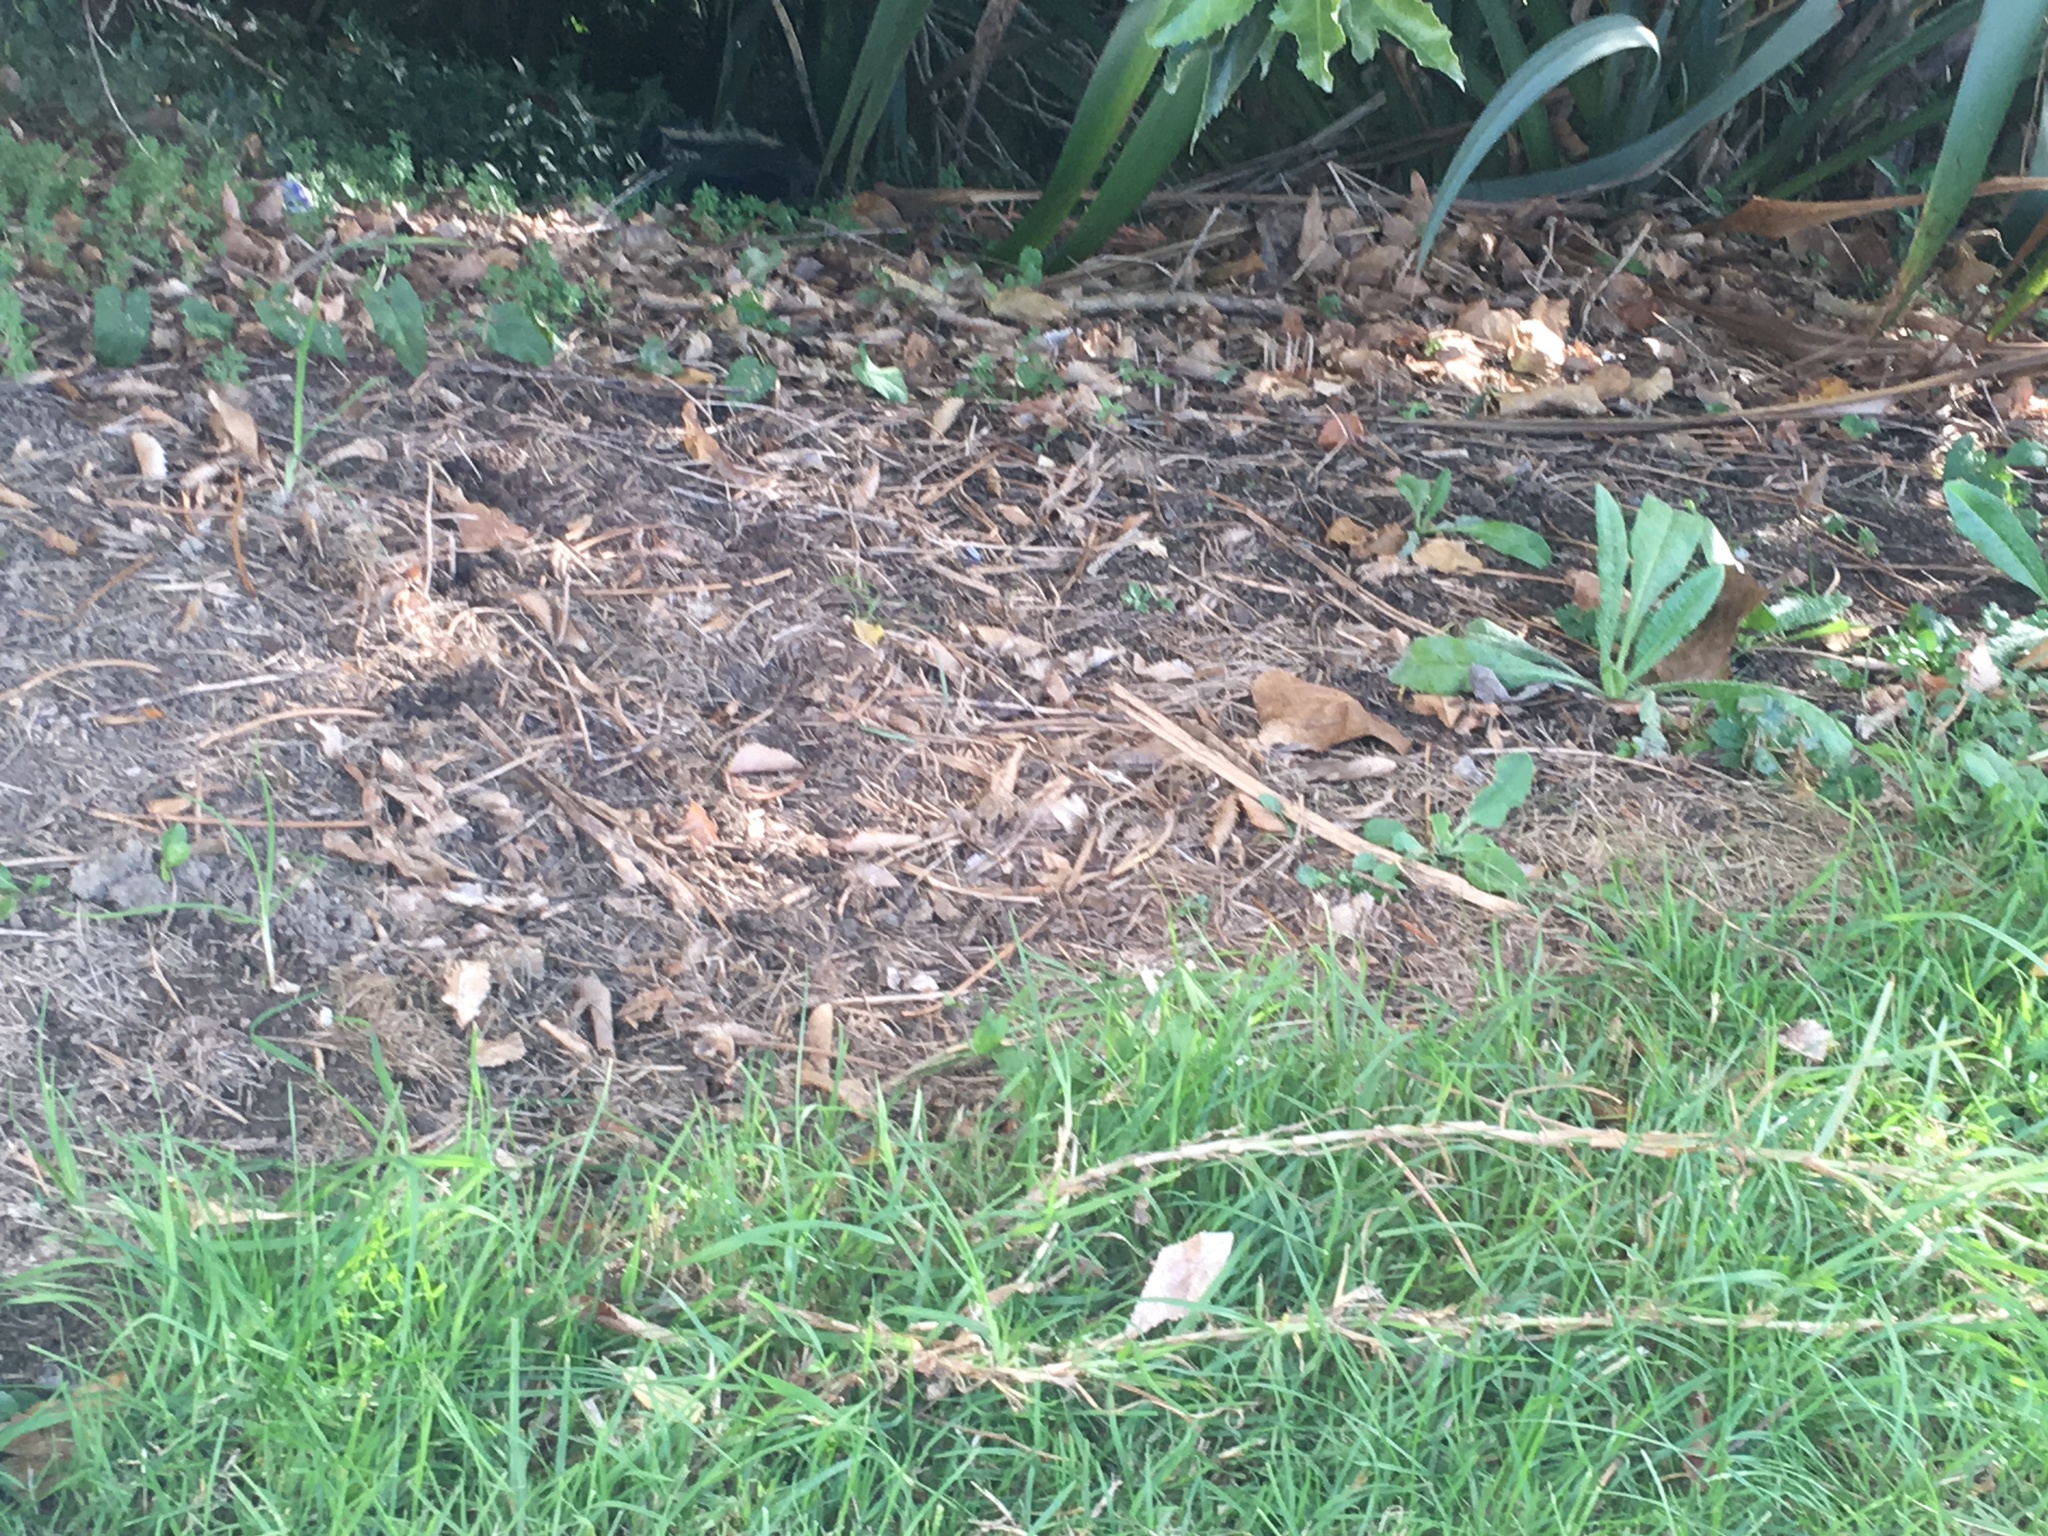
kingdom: Plantae
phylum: Tracheophyta
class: Liliopsida
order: Poales
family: Poaceae
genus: Cenchrus
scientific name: Cenchrus clandestinus
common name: Kikuyugrass
